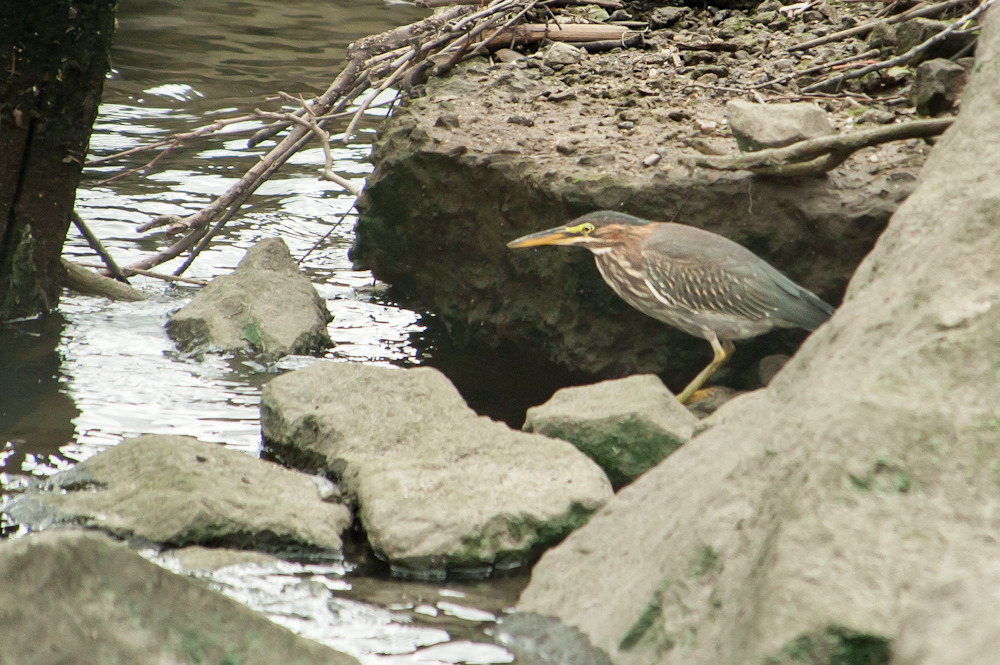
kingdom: Animalia
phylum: Chordata
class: Aves
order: Pelecaniformes
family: Ardeidae
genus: Butorides
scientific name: Butorides virescens
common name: Green heron
